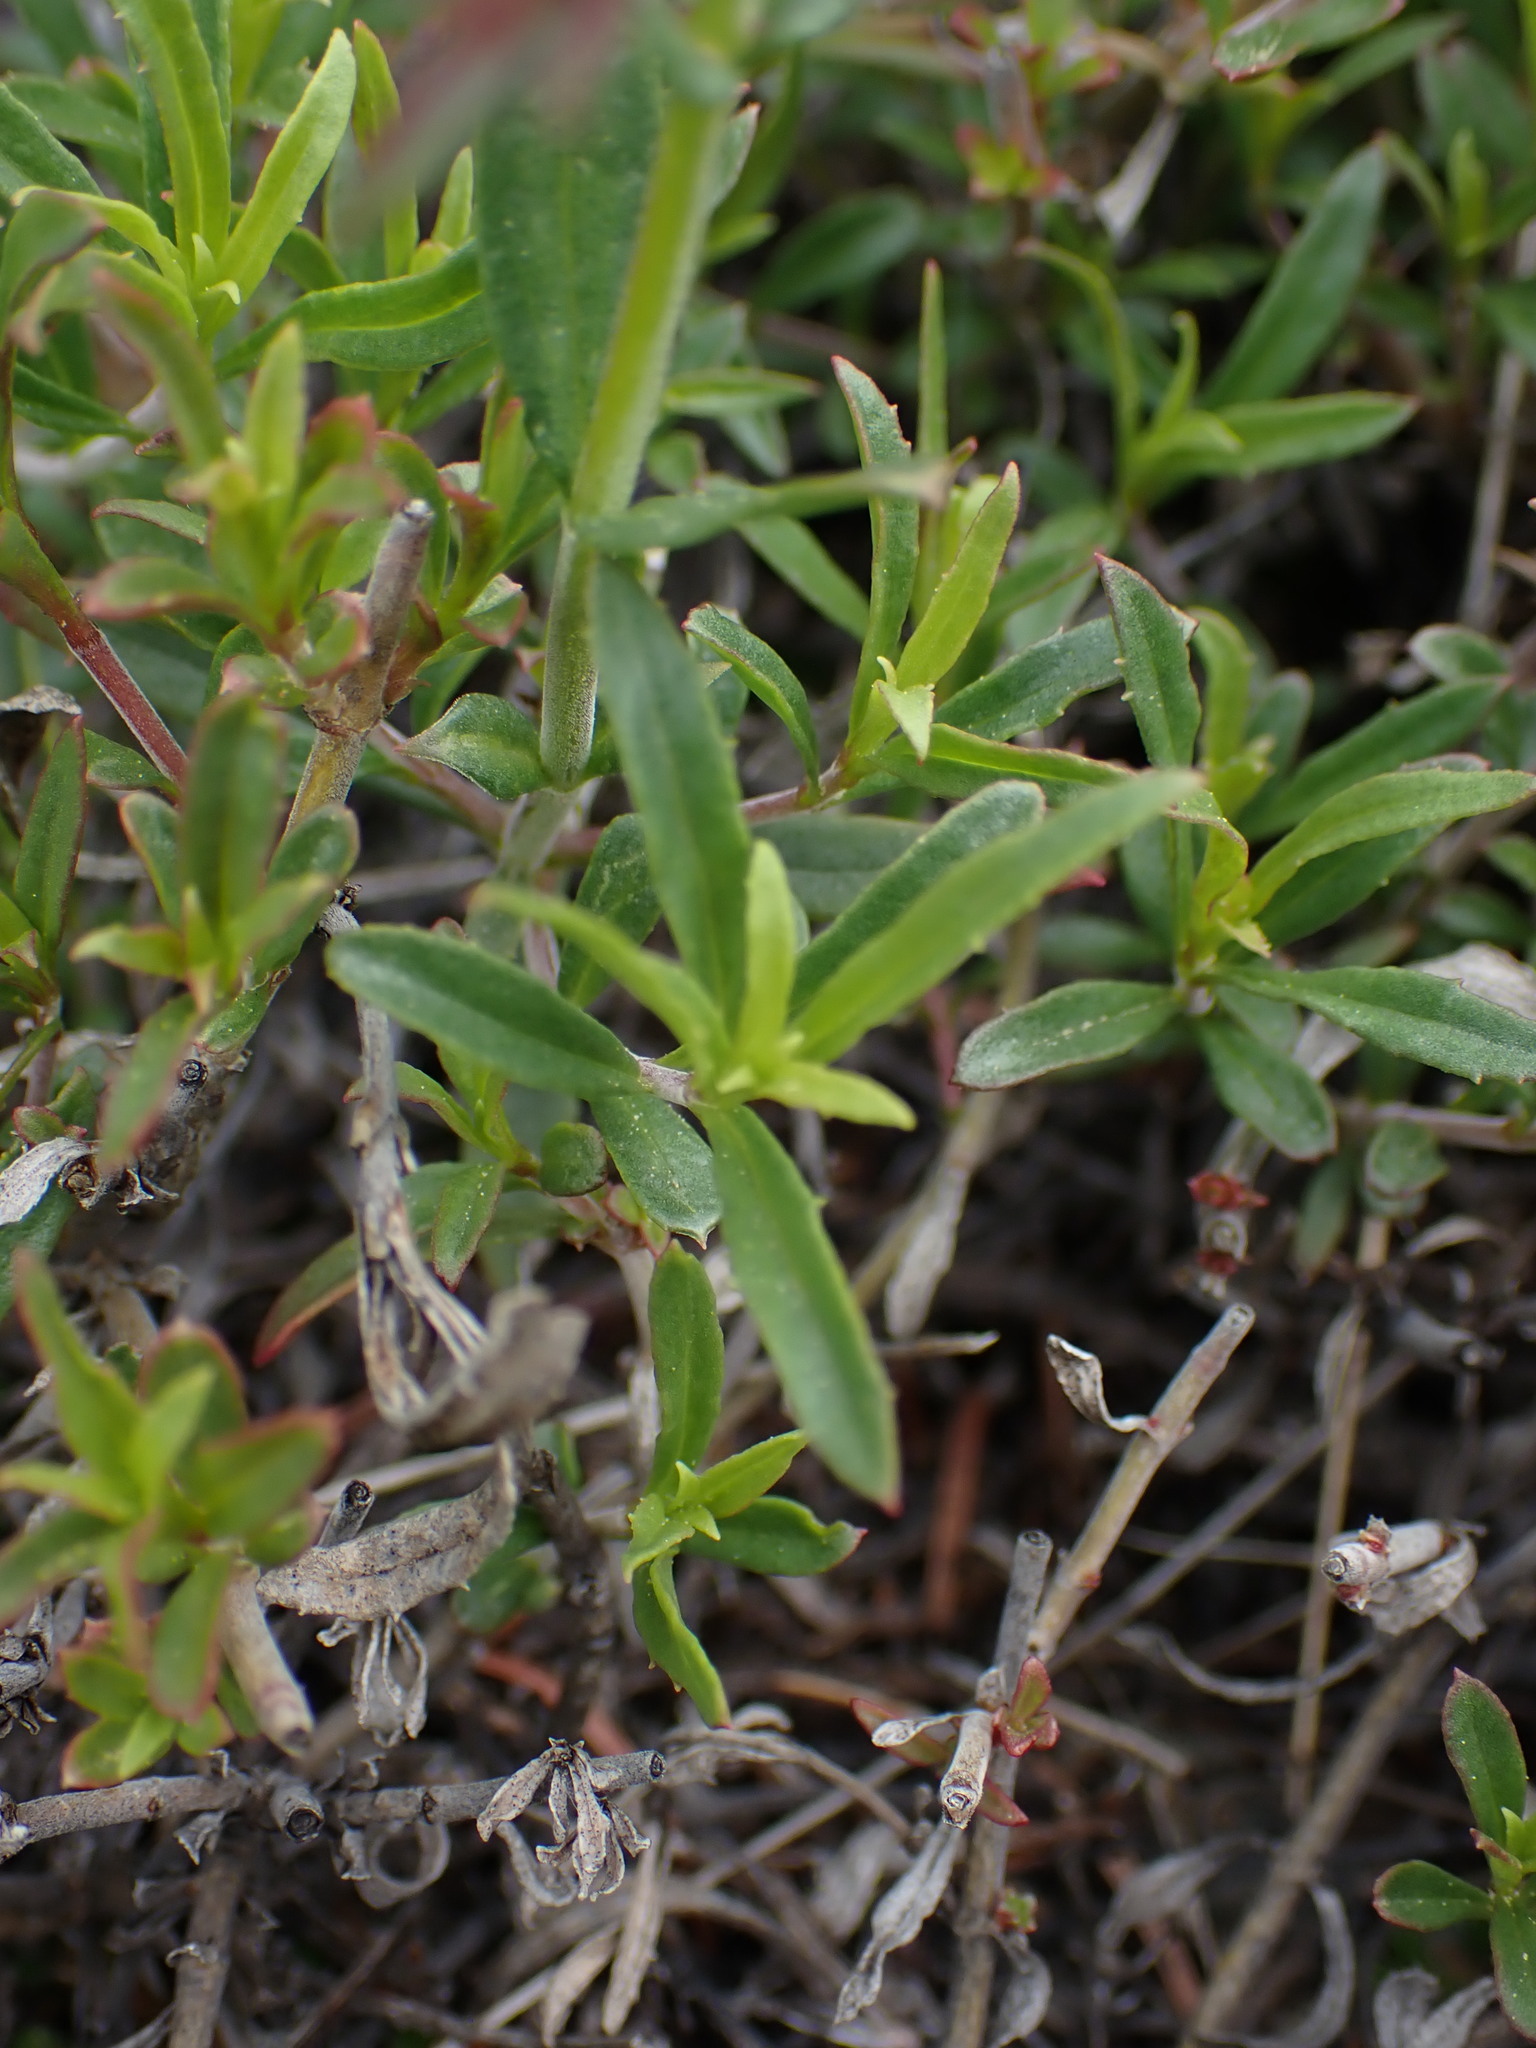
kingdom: Plantae
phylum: Tracheophyta
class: Magnoliopsida
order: Lamiales
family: Plantaginaceae
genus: Penstemon
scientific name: Penstemon fruticosus
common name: Bush penstemon
